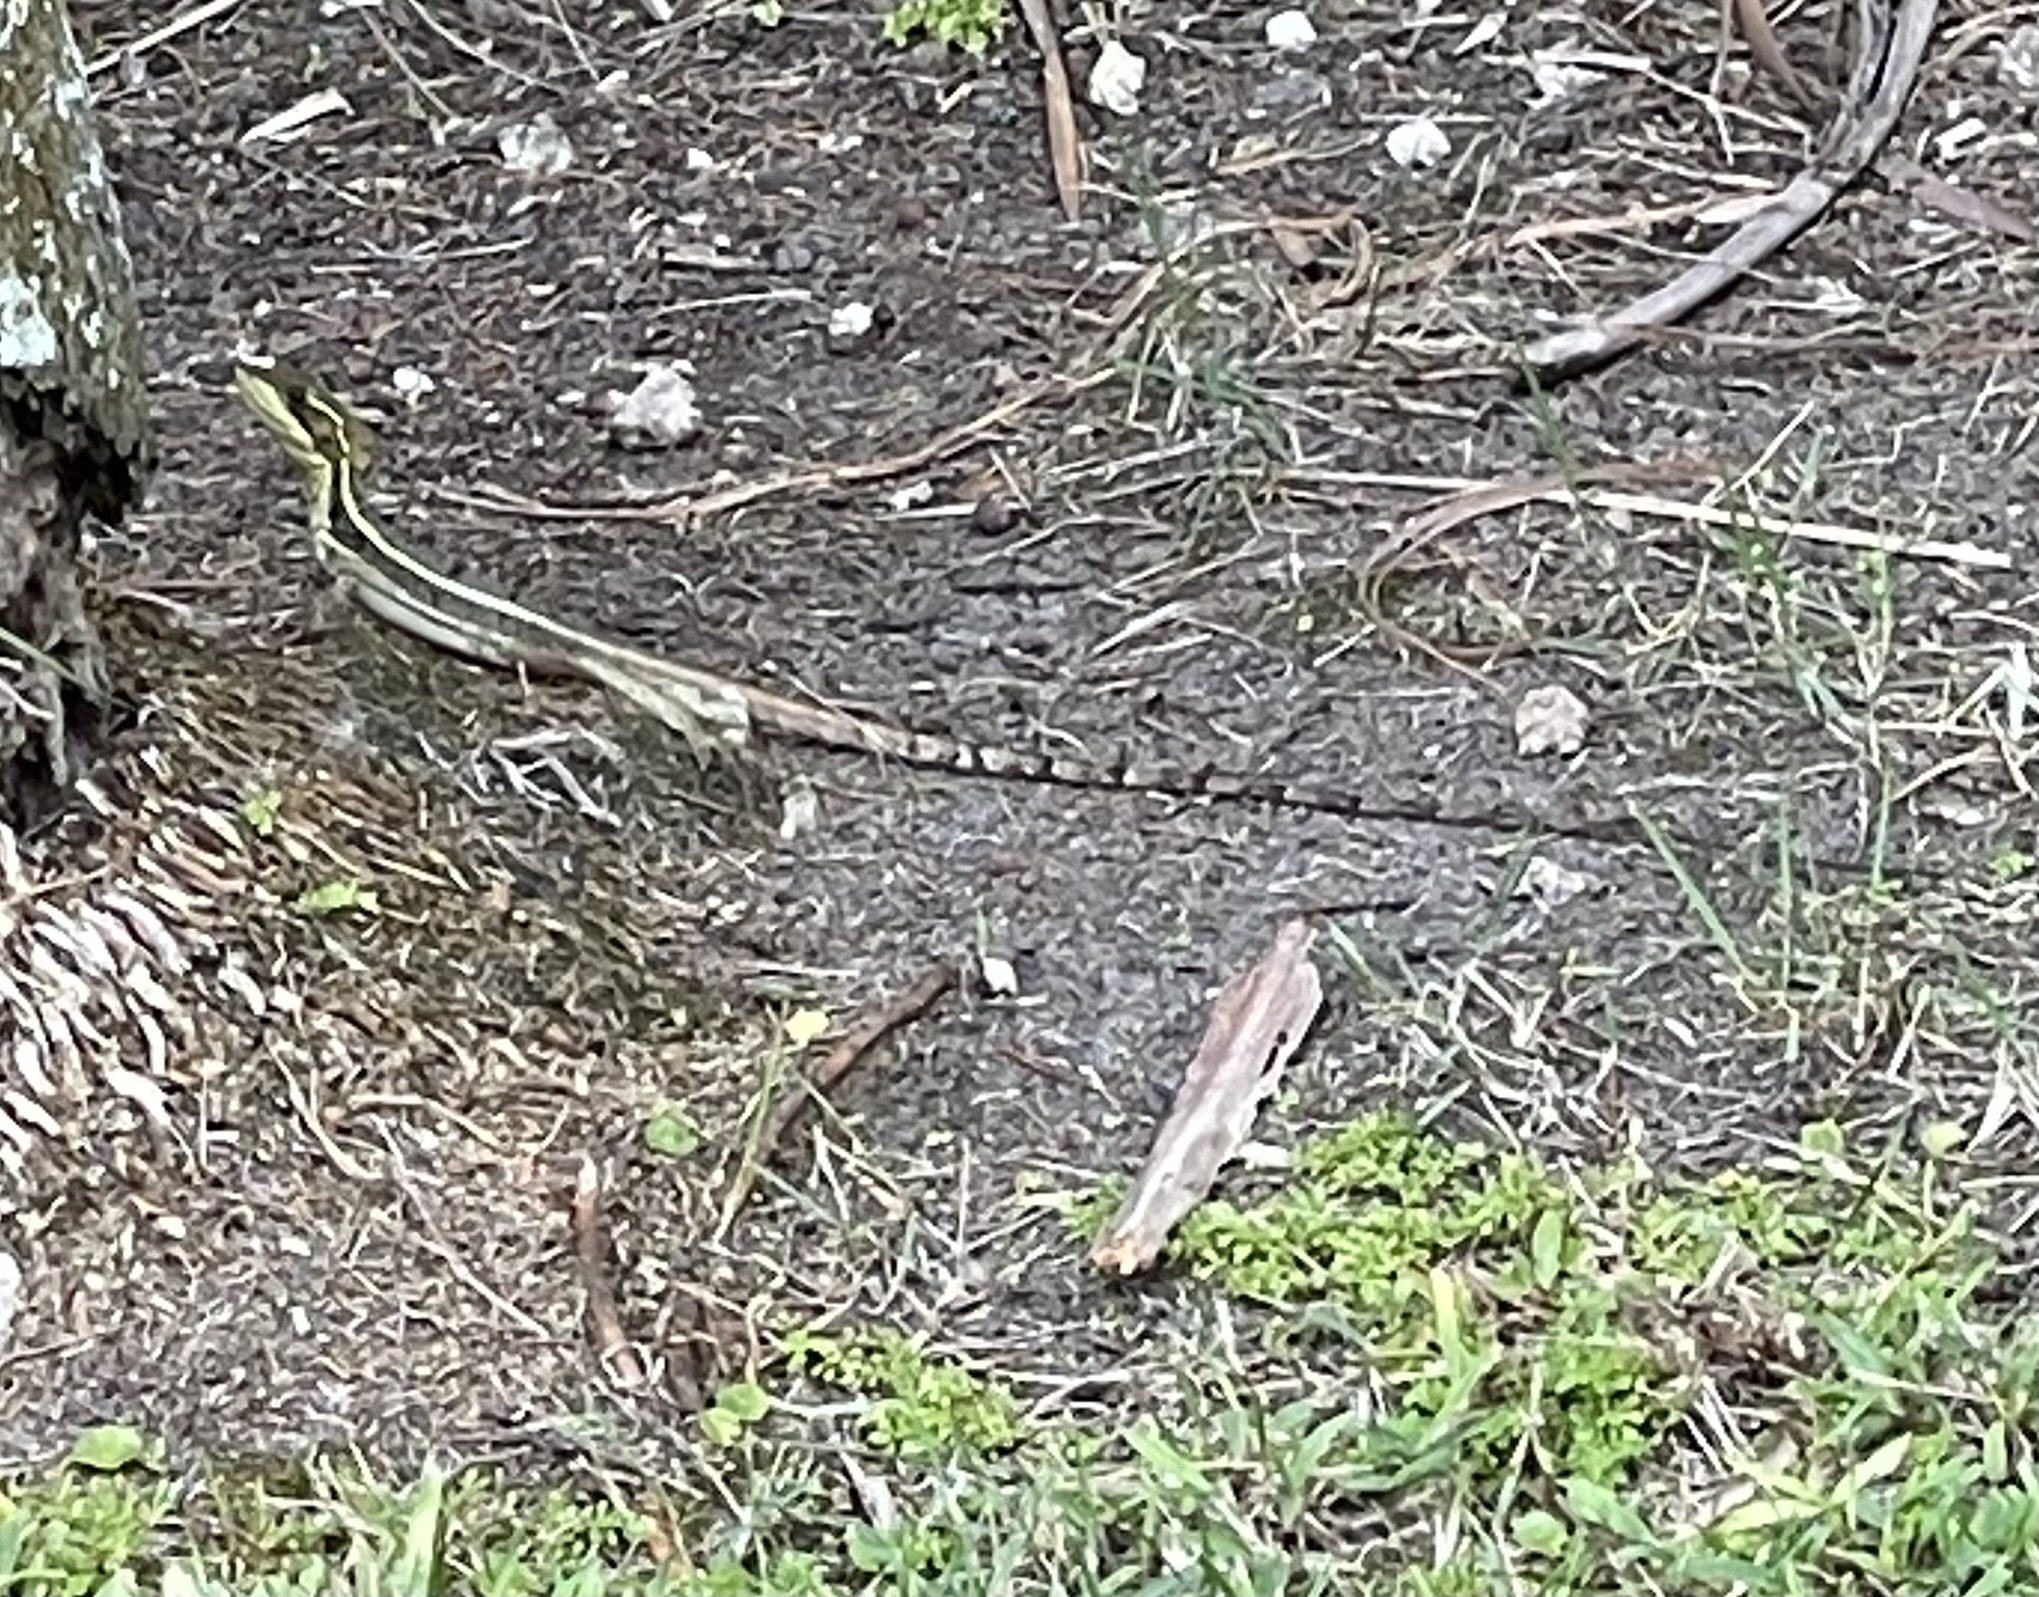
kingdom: Animalia
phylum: Chordata
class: Squamata
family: Corytophanidae
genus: Basiliscus
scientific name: Basiliscus vittatus
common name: Brown basilisk
